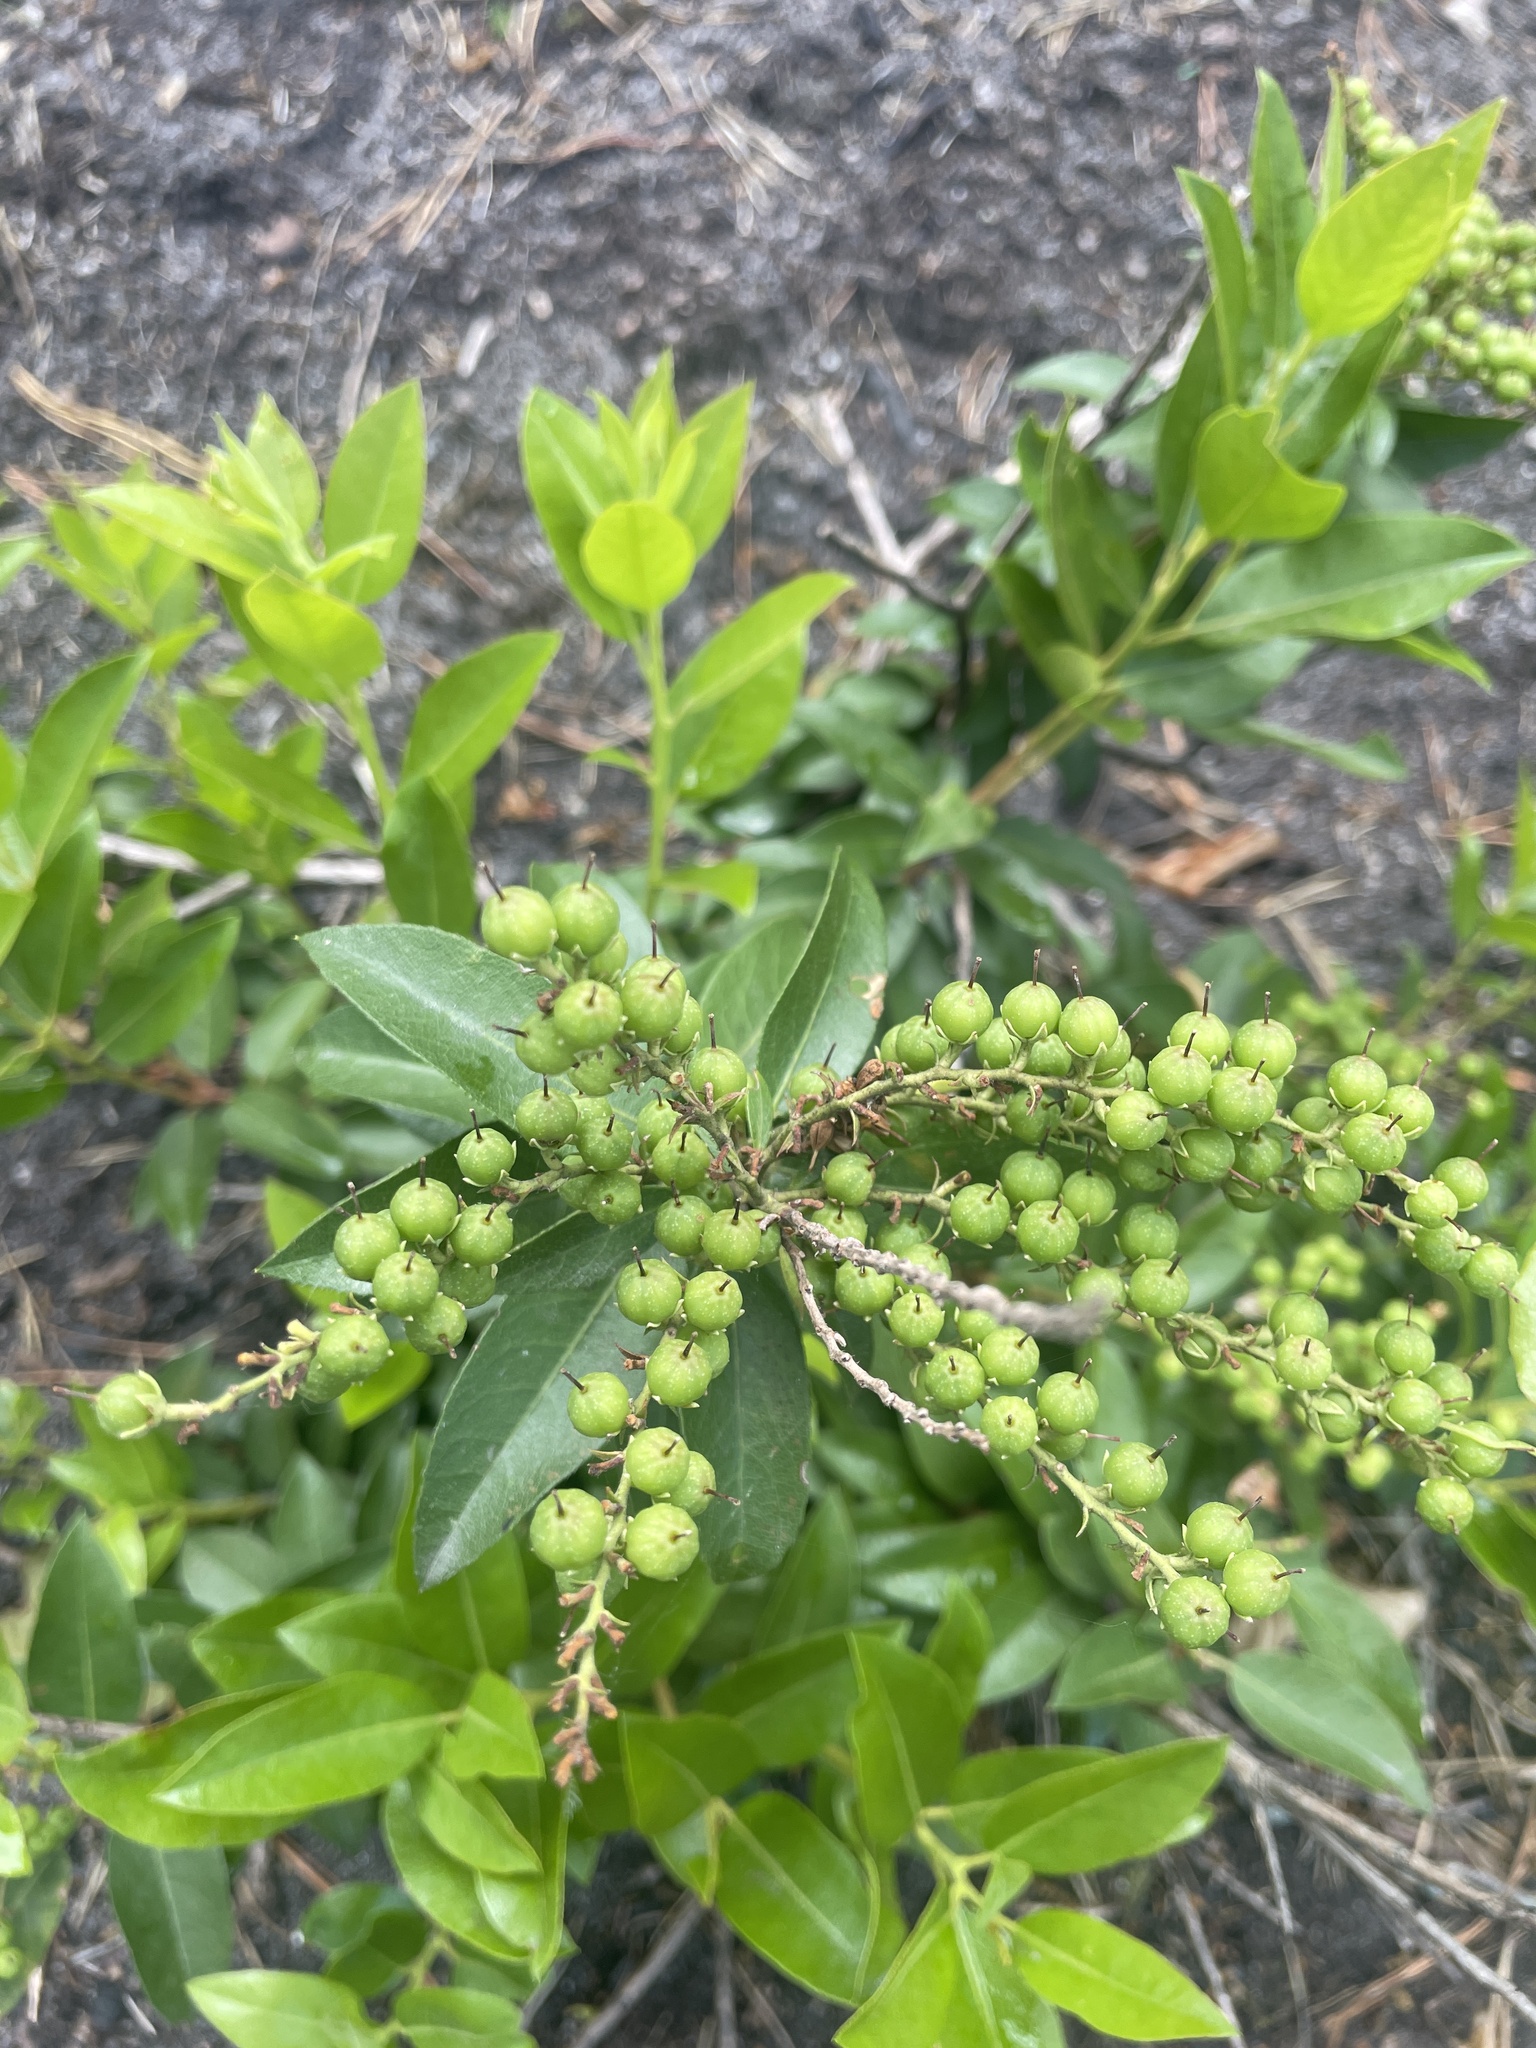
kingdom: Plantae
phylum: Tracheophyta
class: Magnoliopsida
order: Ericales
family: Ericaceae
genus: Pieris
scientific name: Pieris floribunda
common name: Flutterbush
